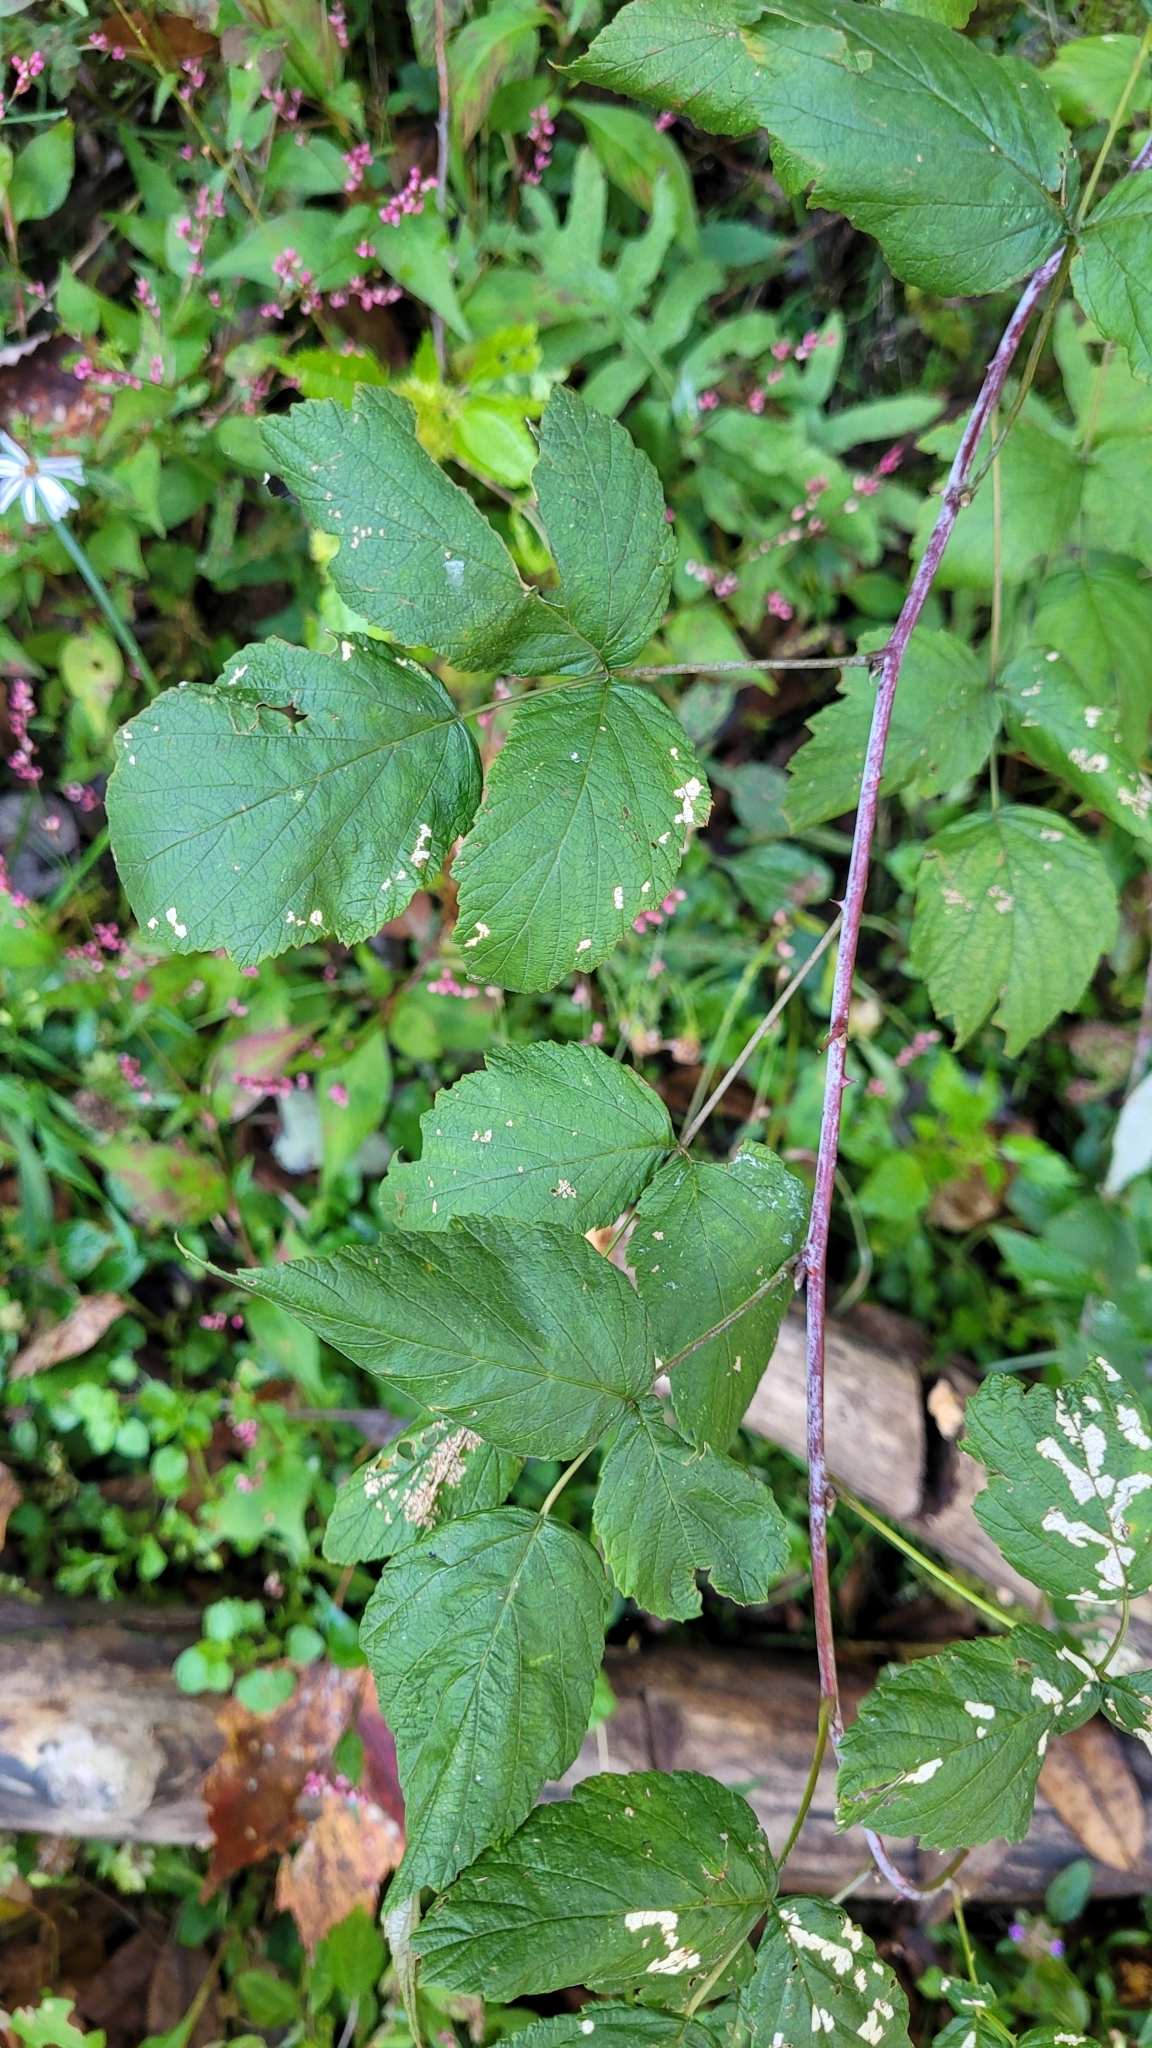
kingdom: Plantae
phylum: Tracheophyta
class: Magnoliopsida
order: Rosales
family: Rosaceae
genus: Rubus
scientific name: Rubus occidentalis
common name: Black raspberry
